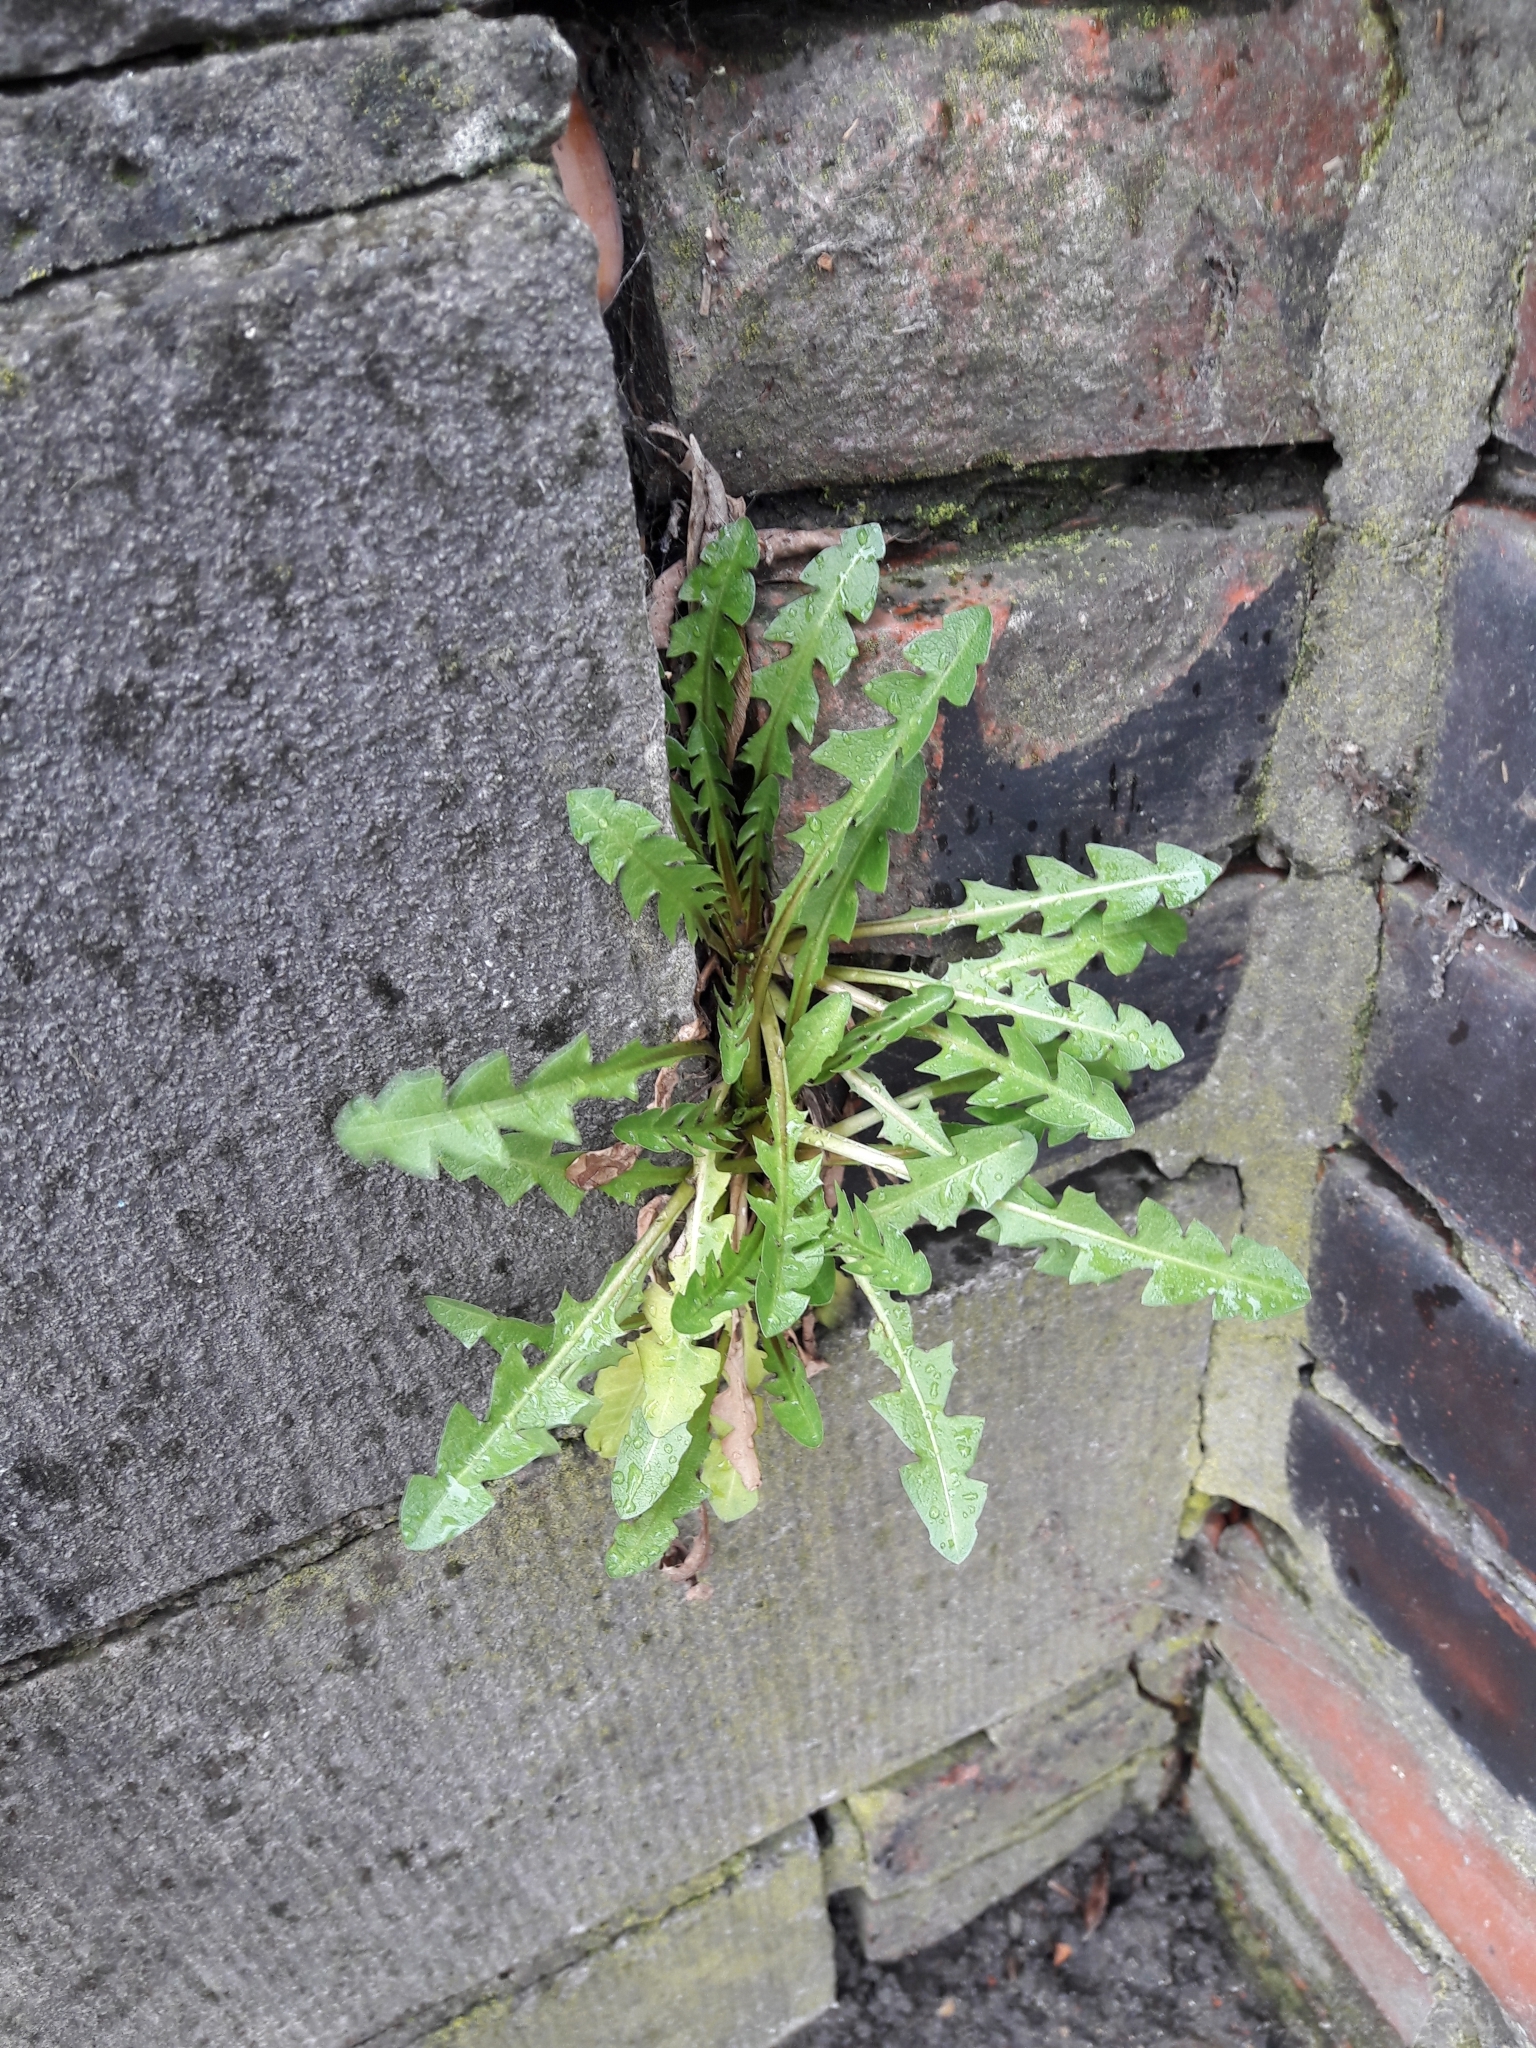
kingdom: Plantae
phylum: Tracheophyta
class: Magnoliopsida
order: Asterales
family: Asteraceae
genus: Taraxacum
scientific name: Taraxacum officinale
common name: Common dandelion
